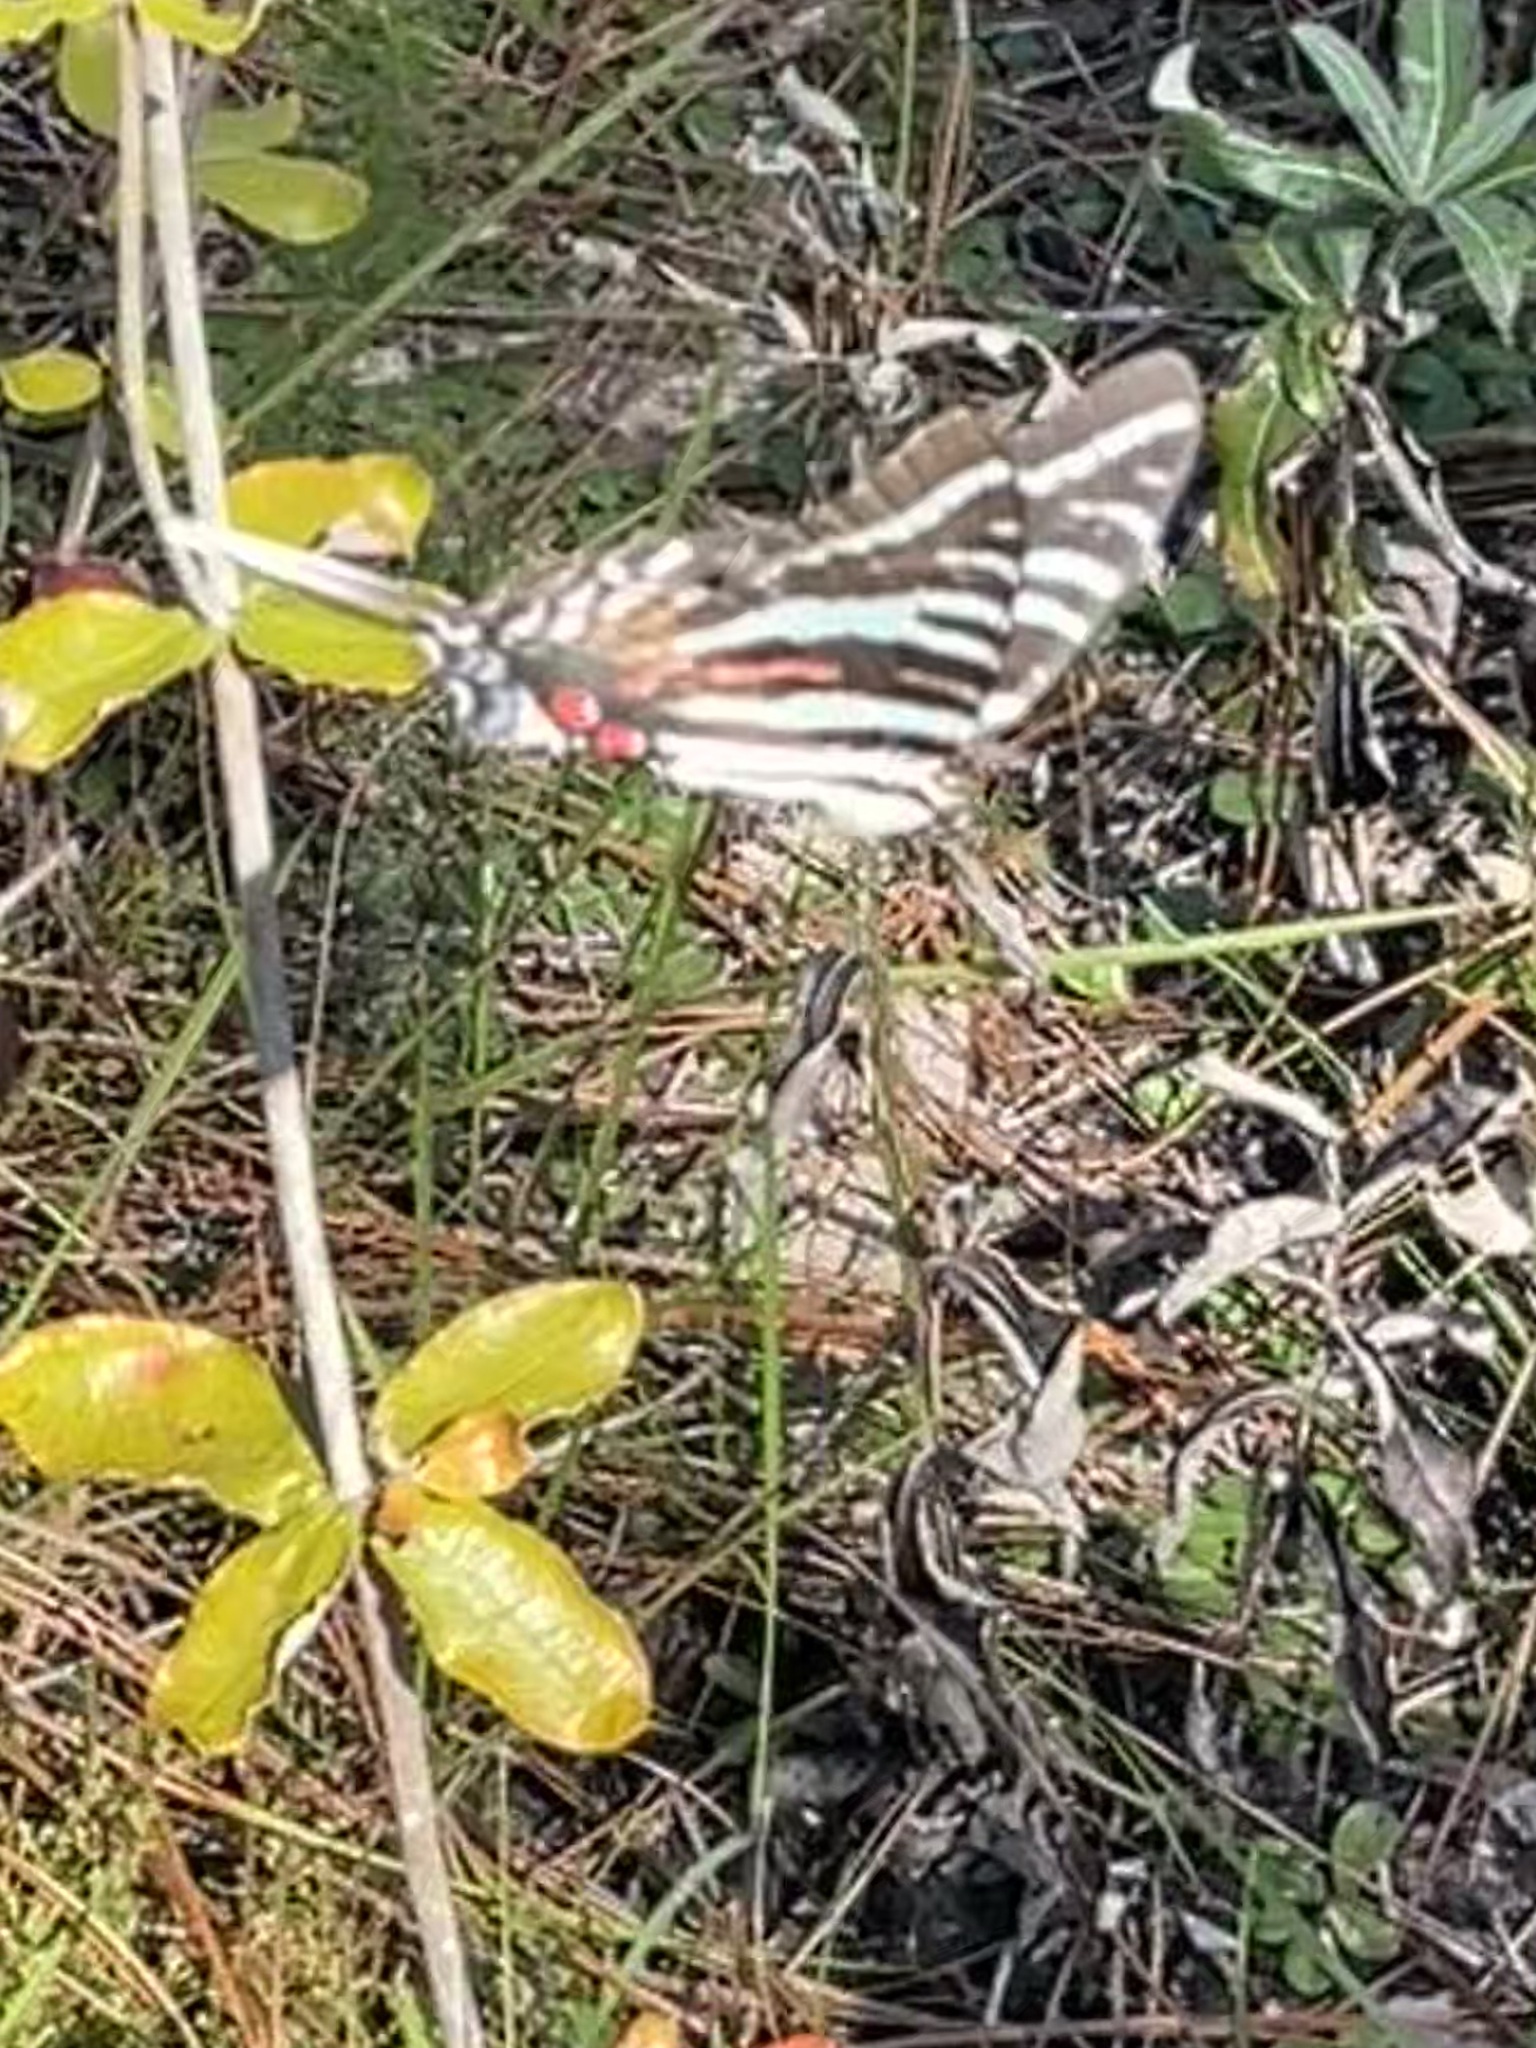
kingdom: Animalia
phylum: Arthropoda
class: Insecta
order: Lepidoptera
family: Papilionidae
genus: Protographium
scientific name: Protographium marcellus
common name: Zebra swallowtail
